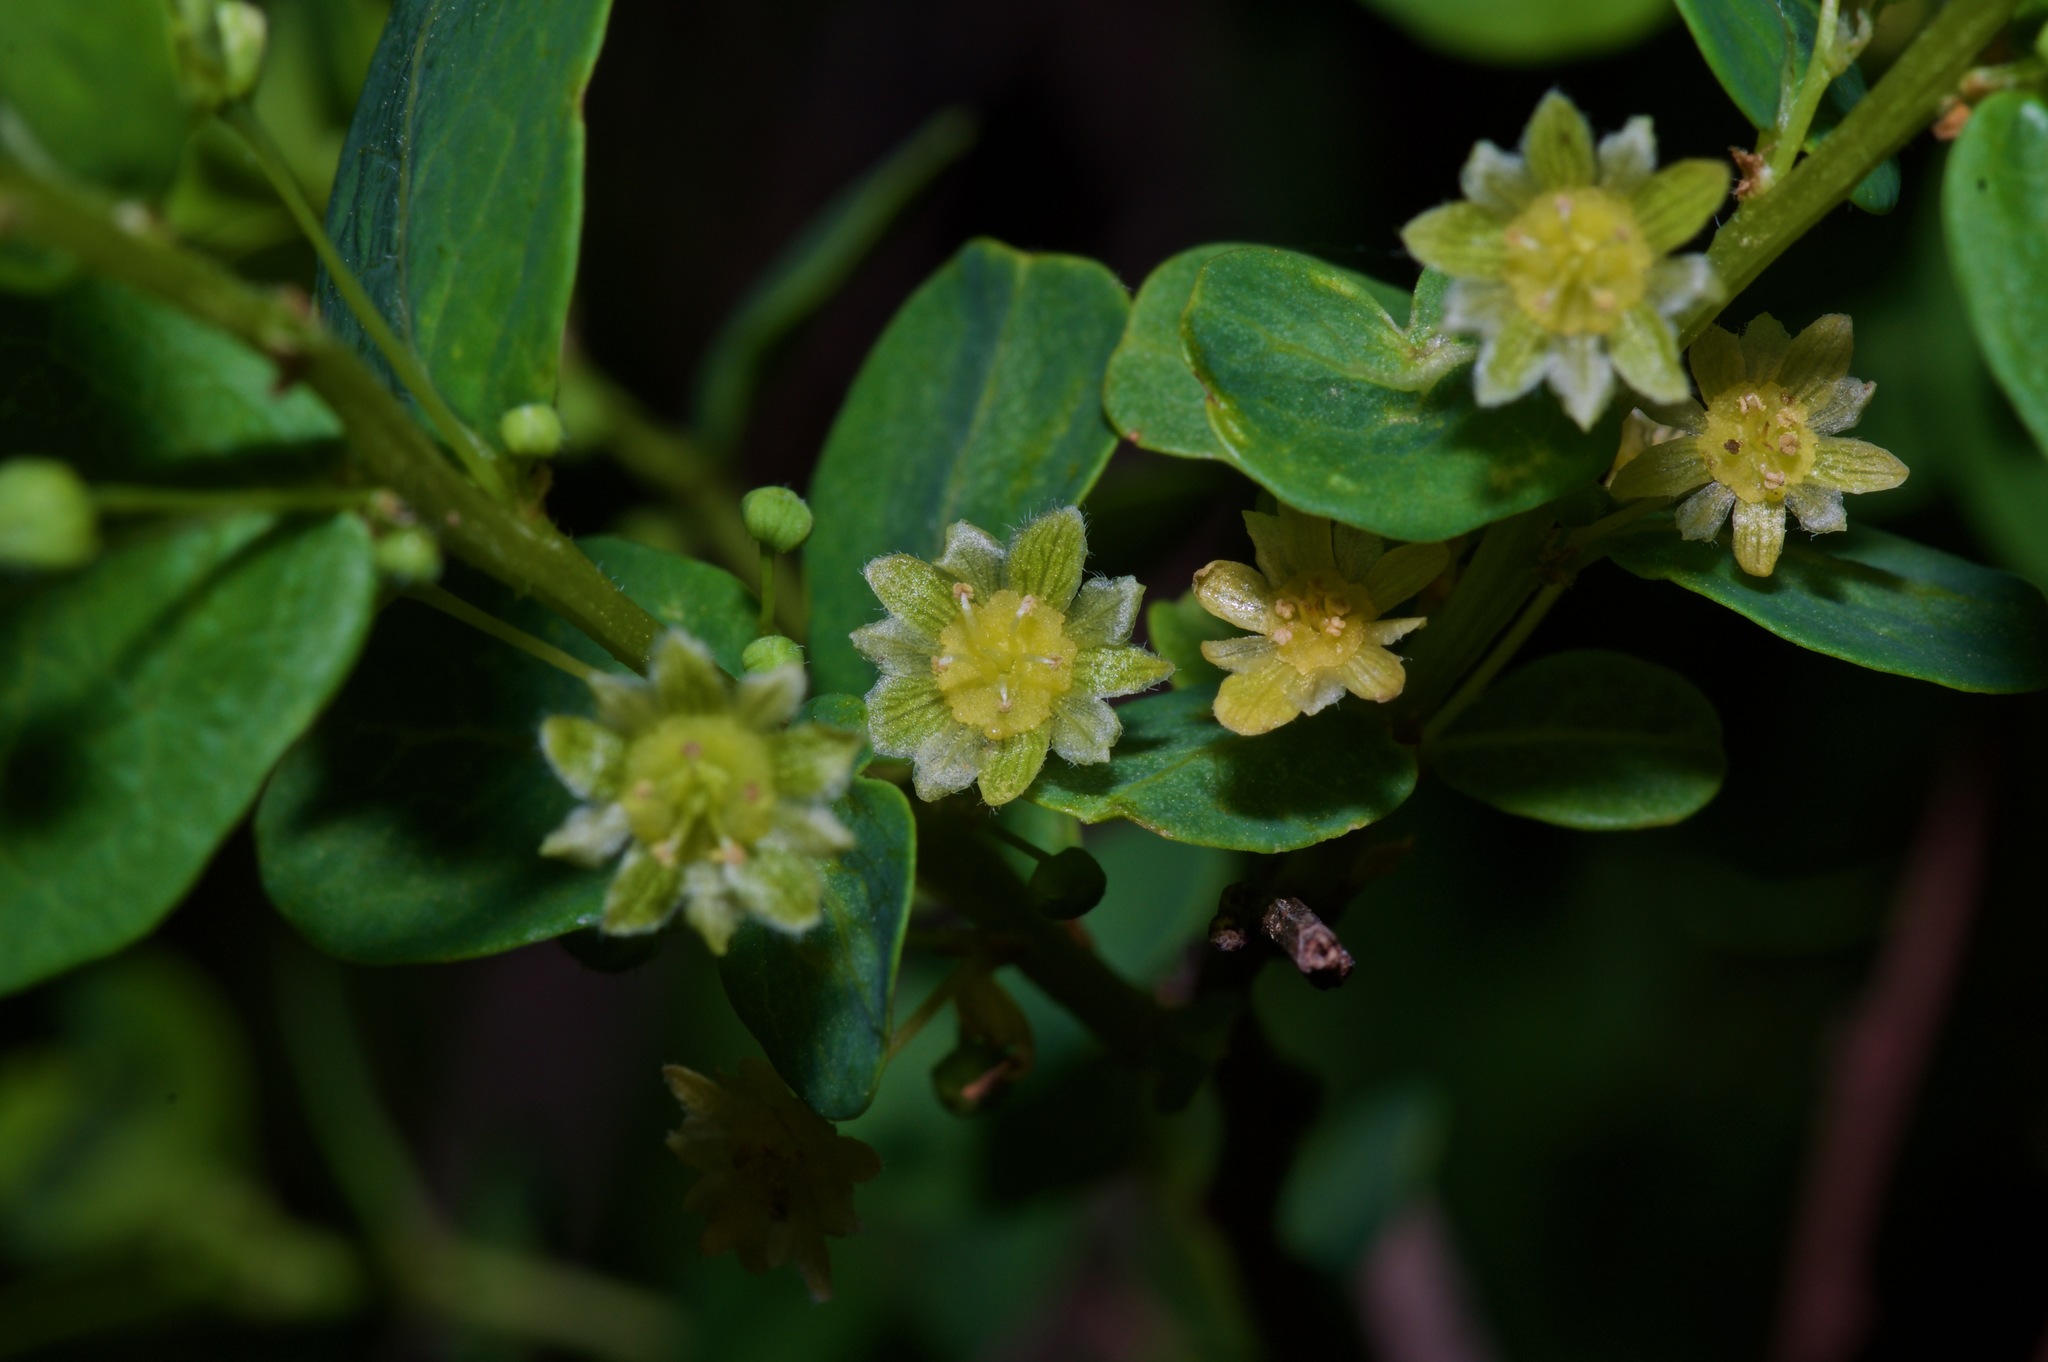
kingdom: Plantae
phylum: Tracheophyta
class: Magnoliopsida
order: Malpighiales
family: Phyllanthaceae
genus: Phyllanthopsis
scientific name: Phyllanthopsis phyllanthoides
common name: Missouri maidenbush
